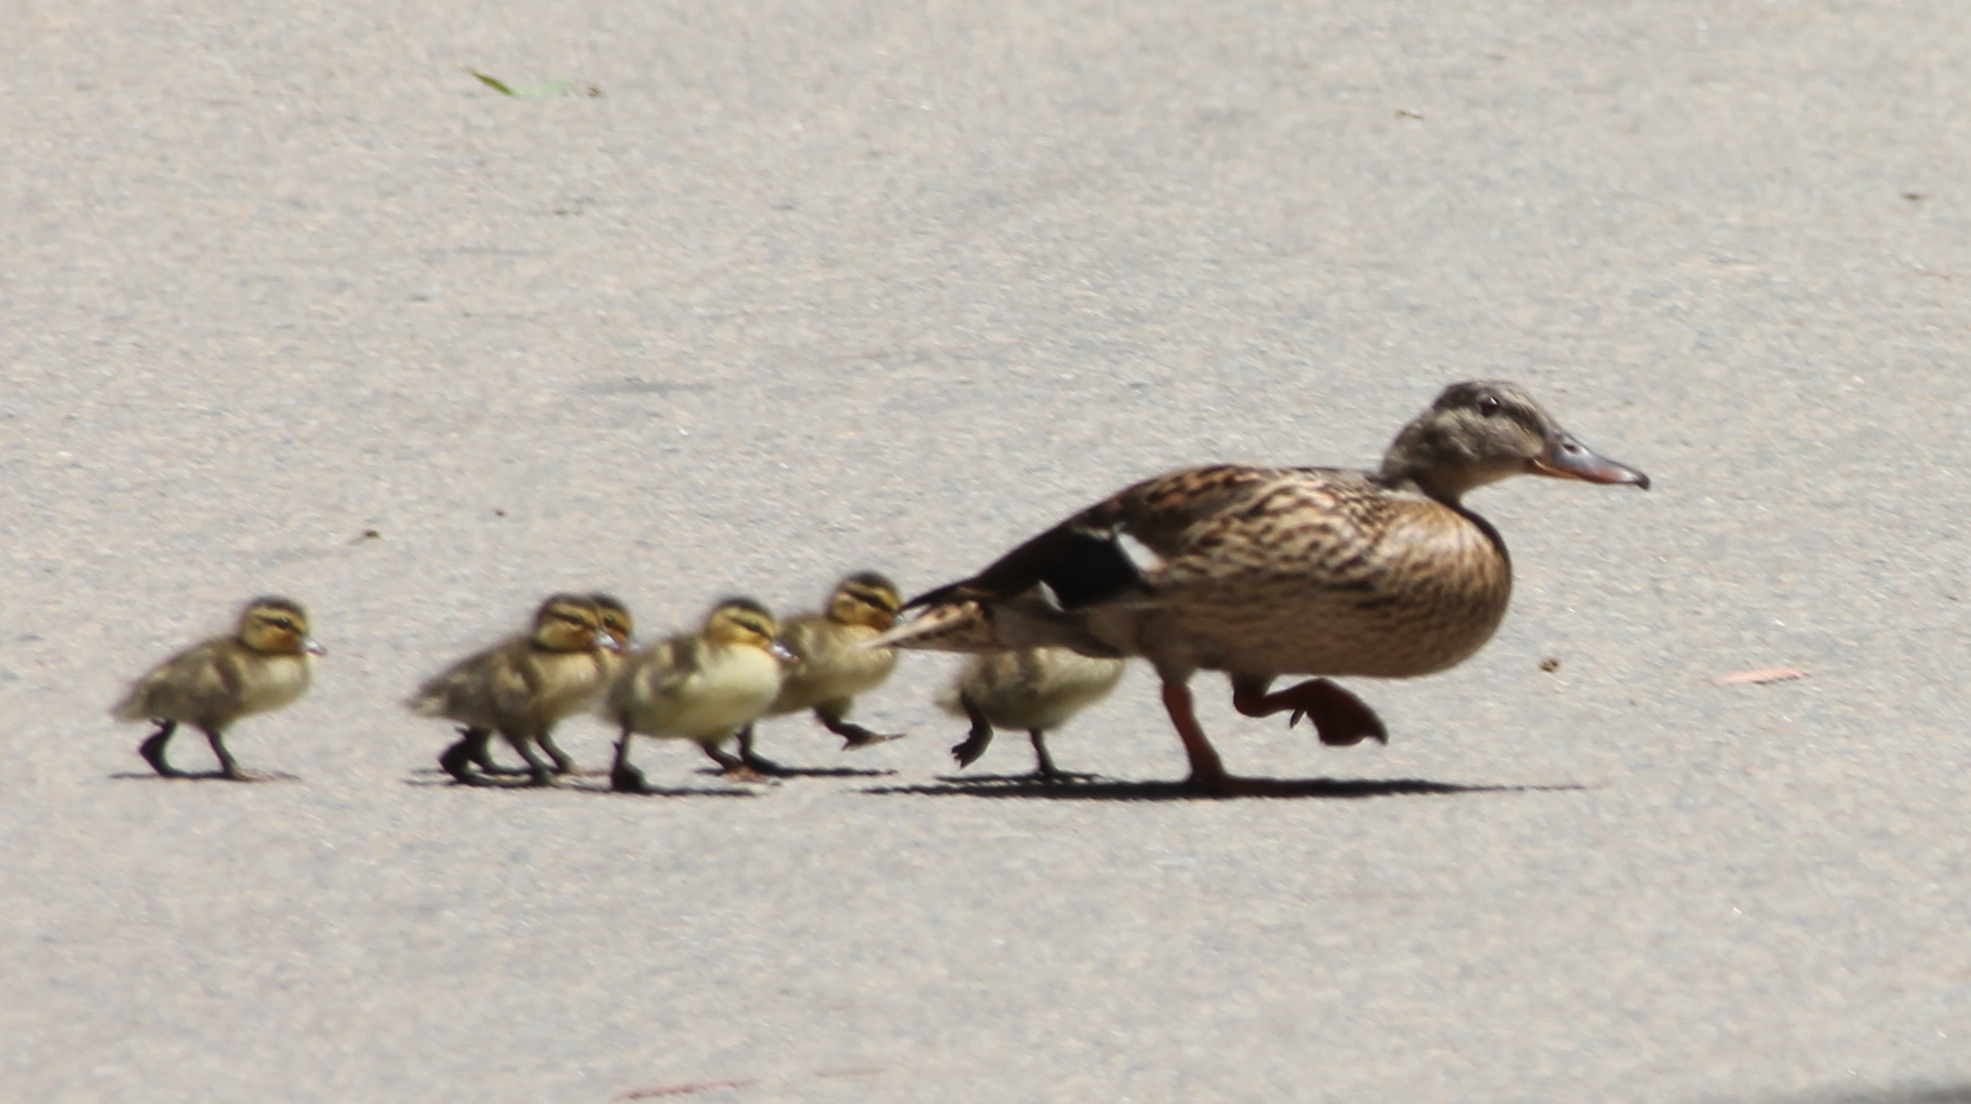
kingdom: Animalia
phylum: Chordata
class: Aves
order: Anseriformes
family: Anatidae
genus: Anas
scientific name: Anas platyrhynchos
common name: Mallard
